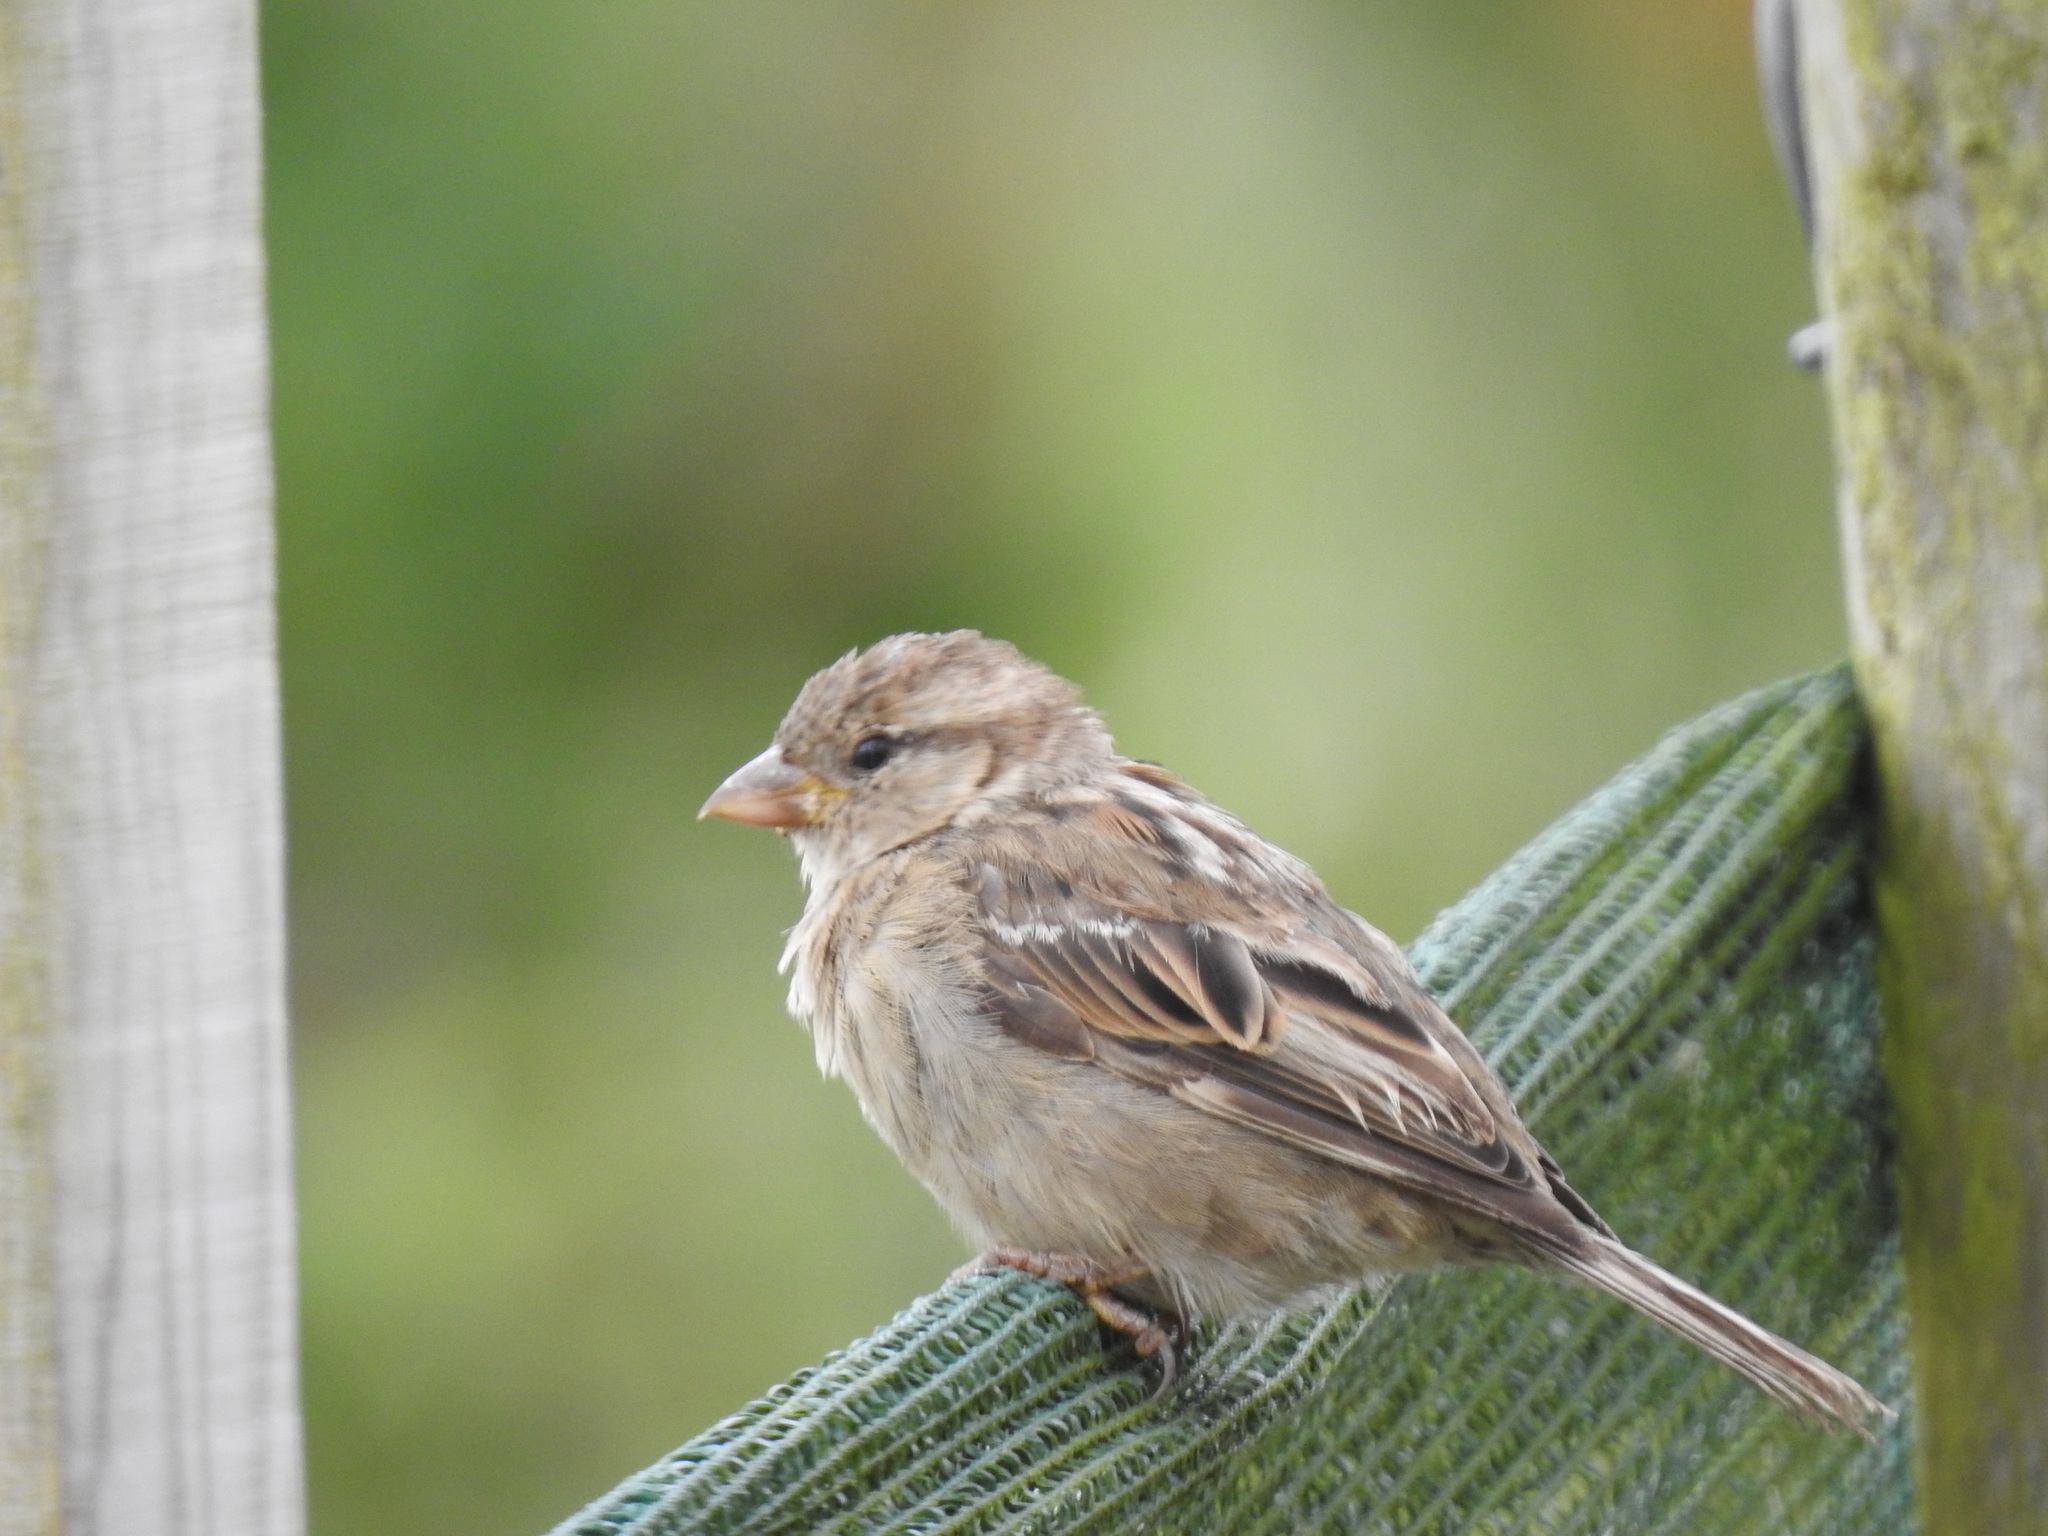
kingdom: Animalia
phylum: Chordata
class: Aves
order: Passeriformes
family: Passeridae
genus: Passer
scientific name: Passer domesticus
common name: House sparrow
